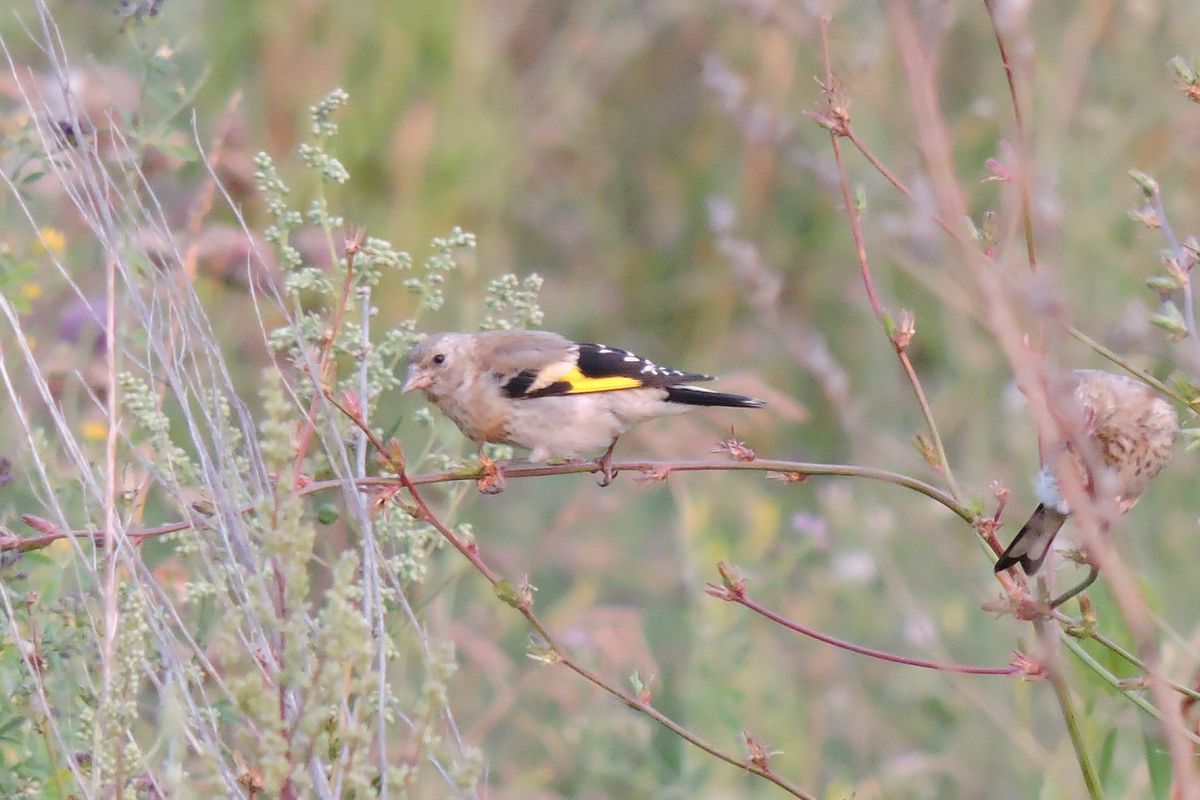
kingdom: Animalia
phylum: Chordata
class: Aves
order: Passeriformes
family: Fringillidae
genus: Carduelis
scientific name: Carduelis carduelis
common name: European goldfinch
